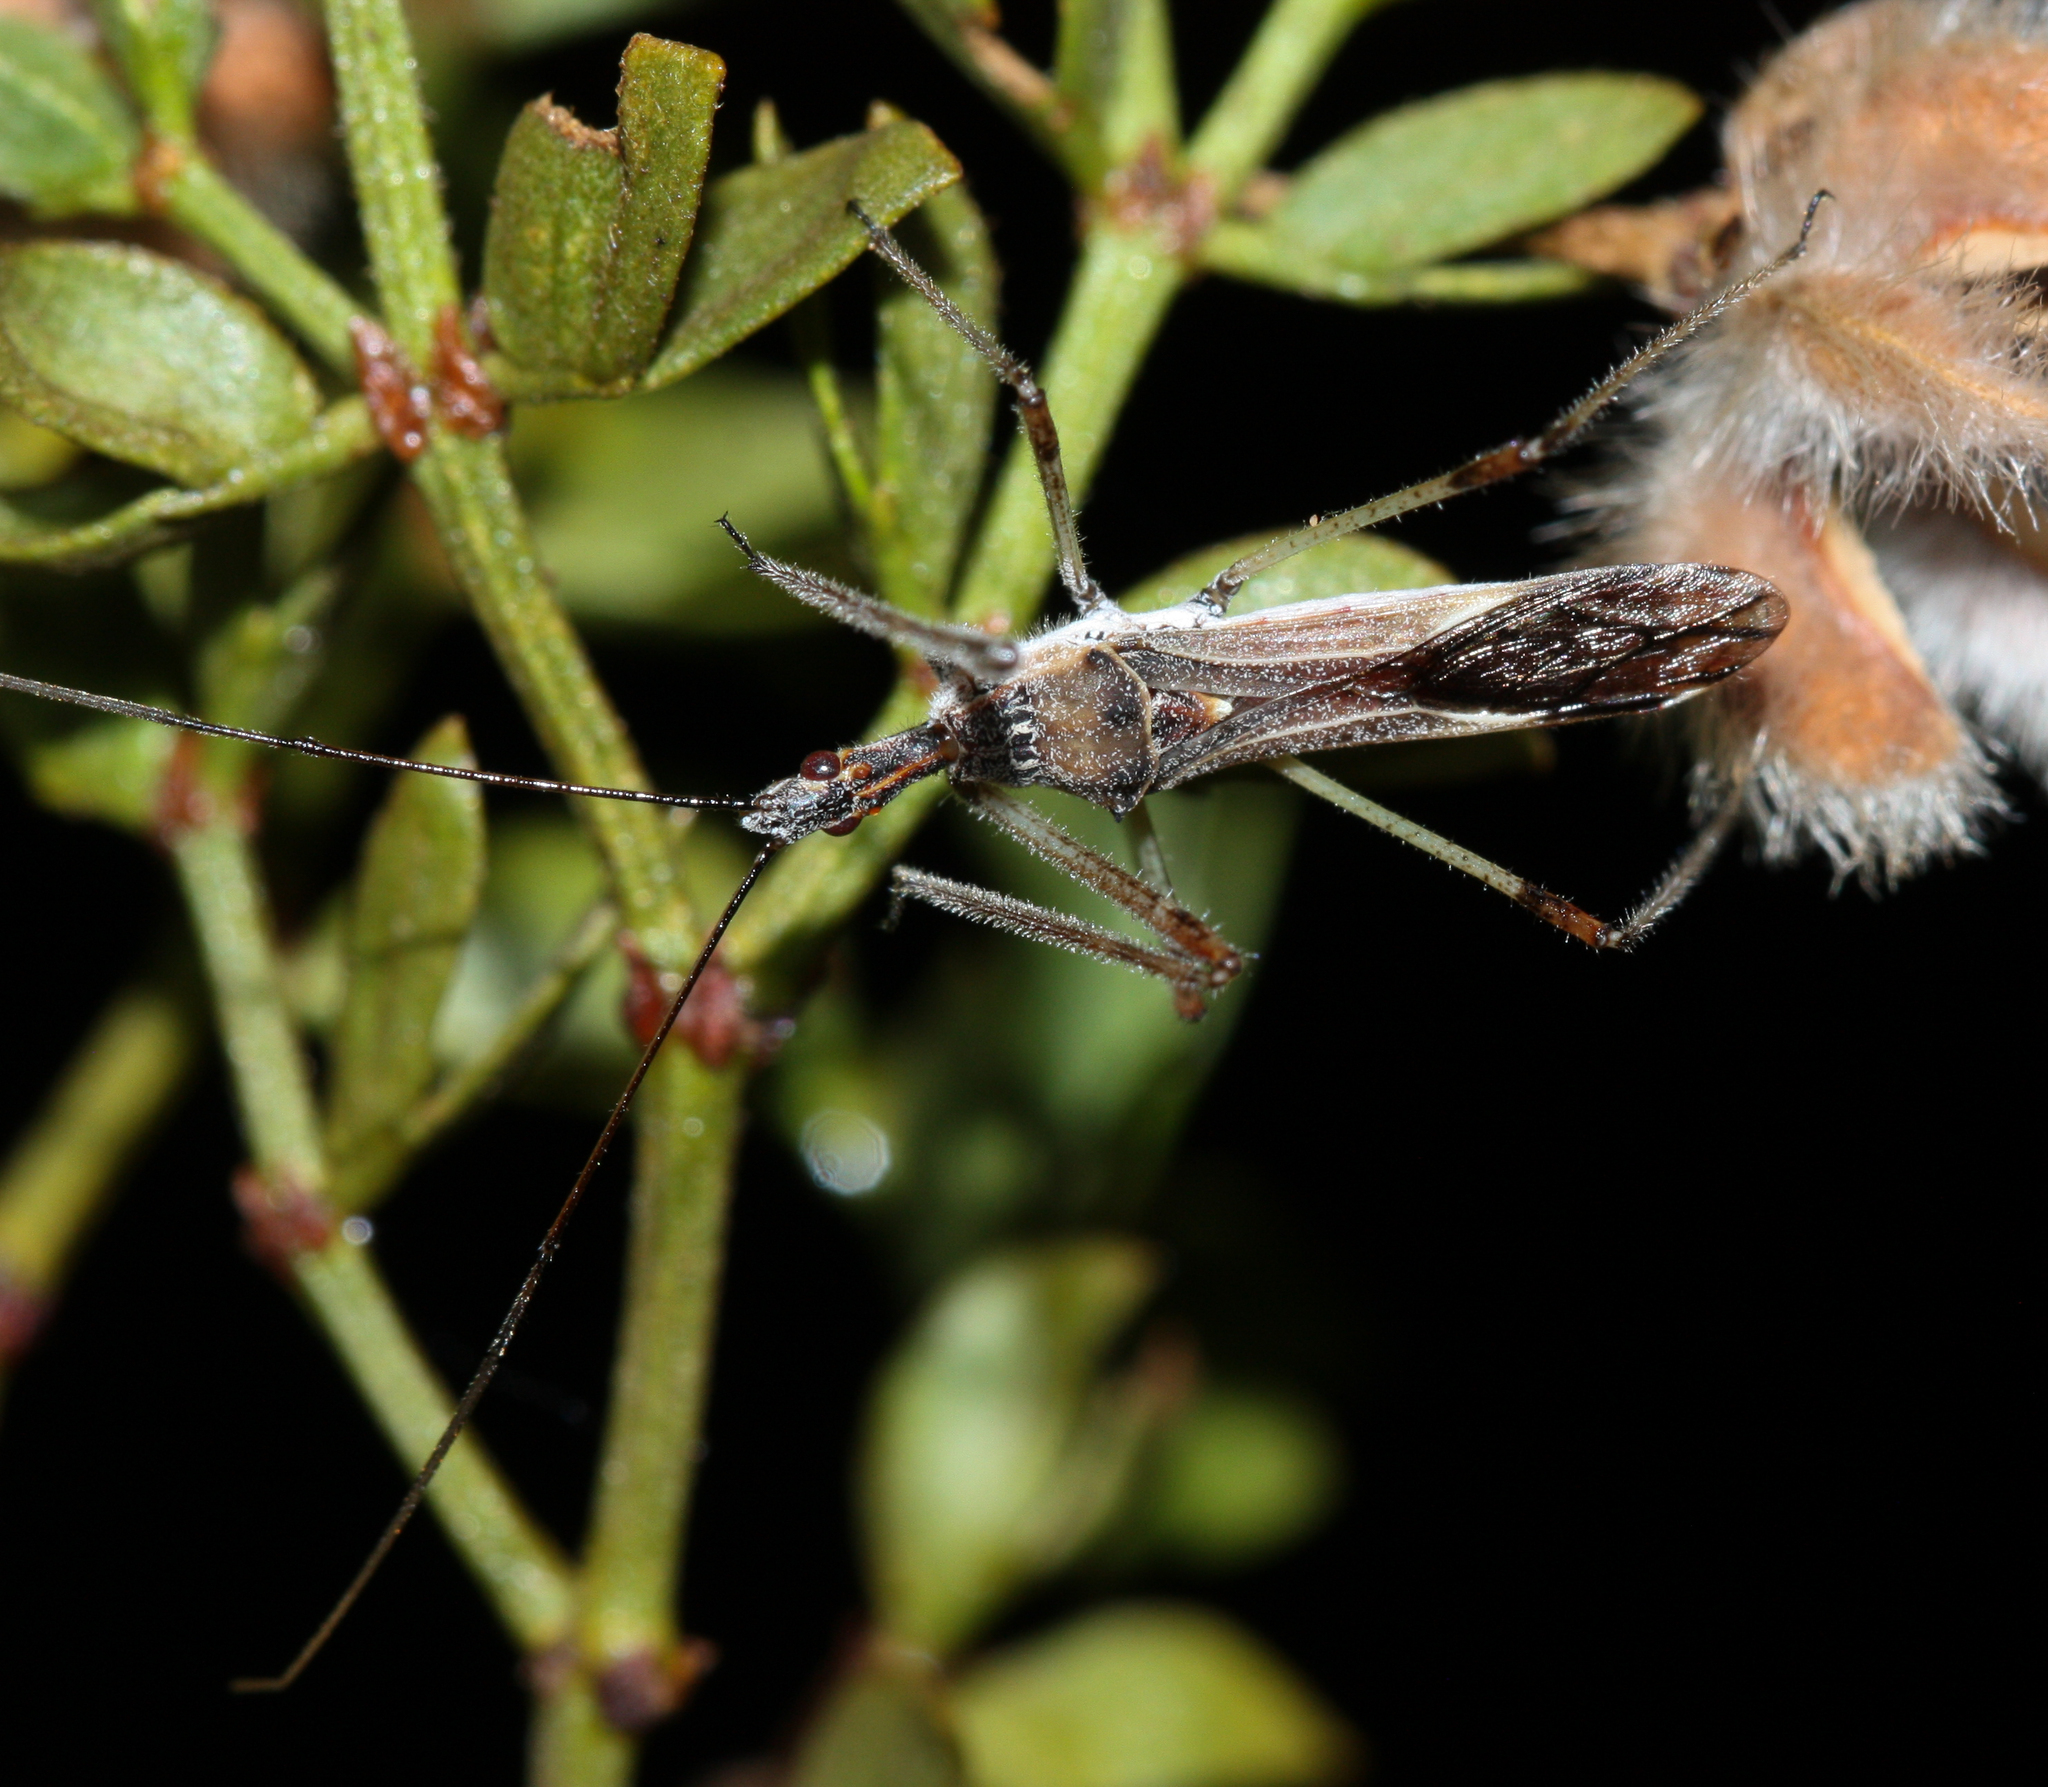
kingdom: Animalia
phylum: Arthropoda
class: Insecta
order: Hemiptera
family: Reduviidae
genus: Zelus
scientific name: Zelus tetracanthus
